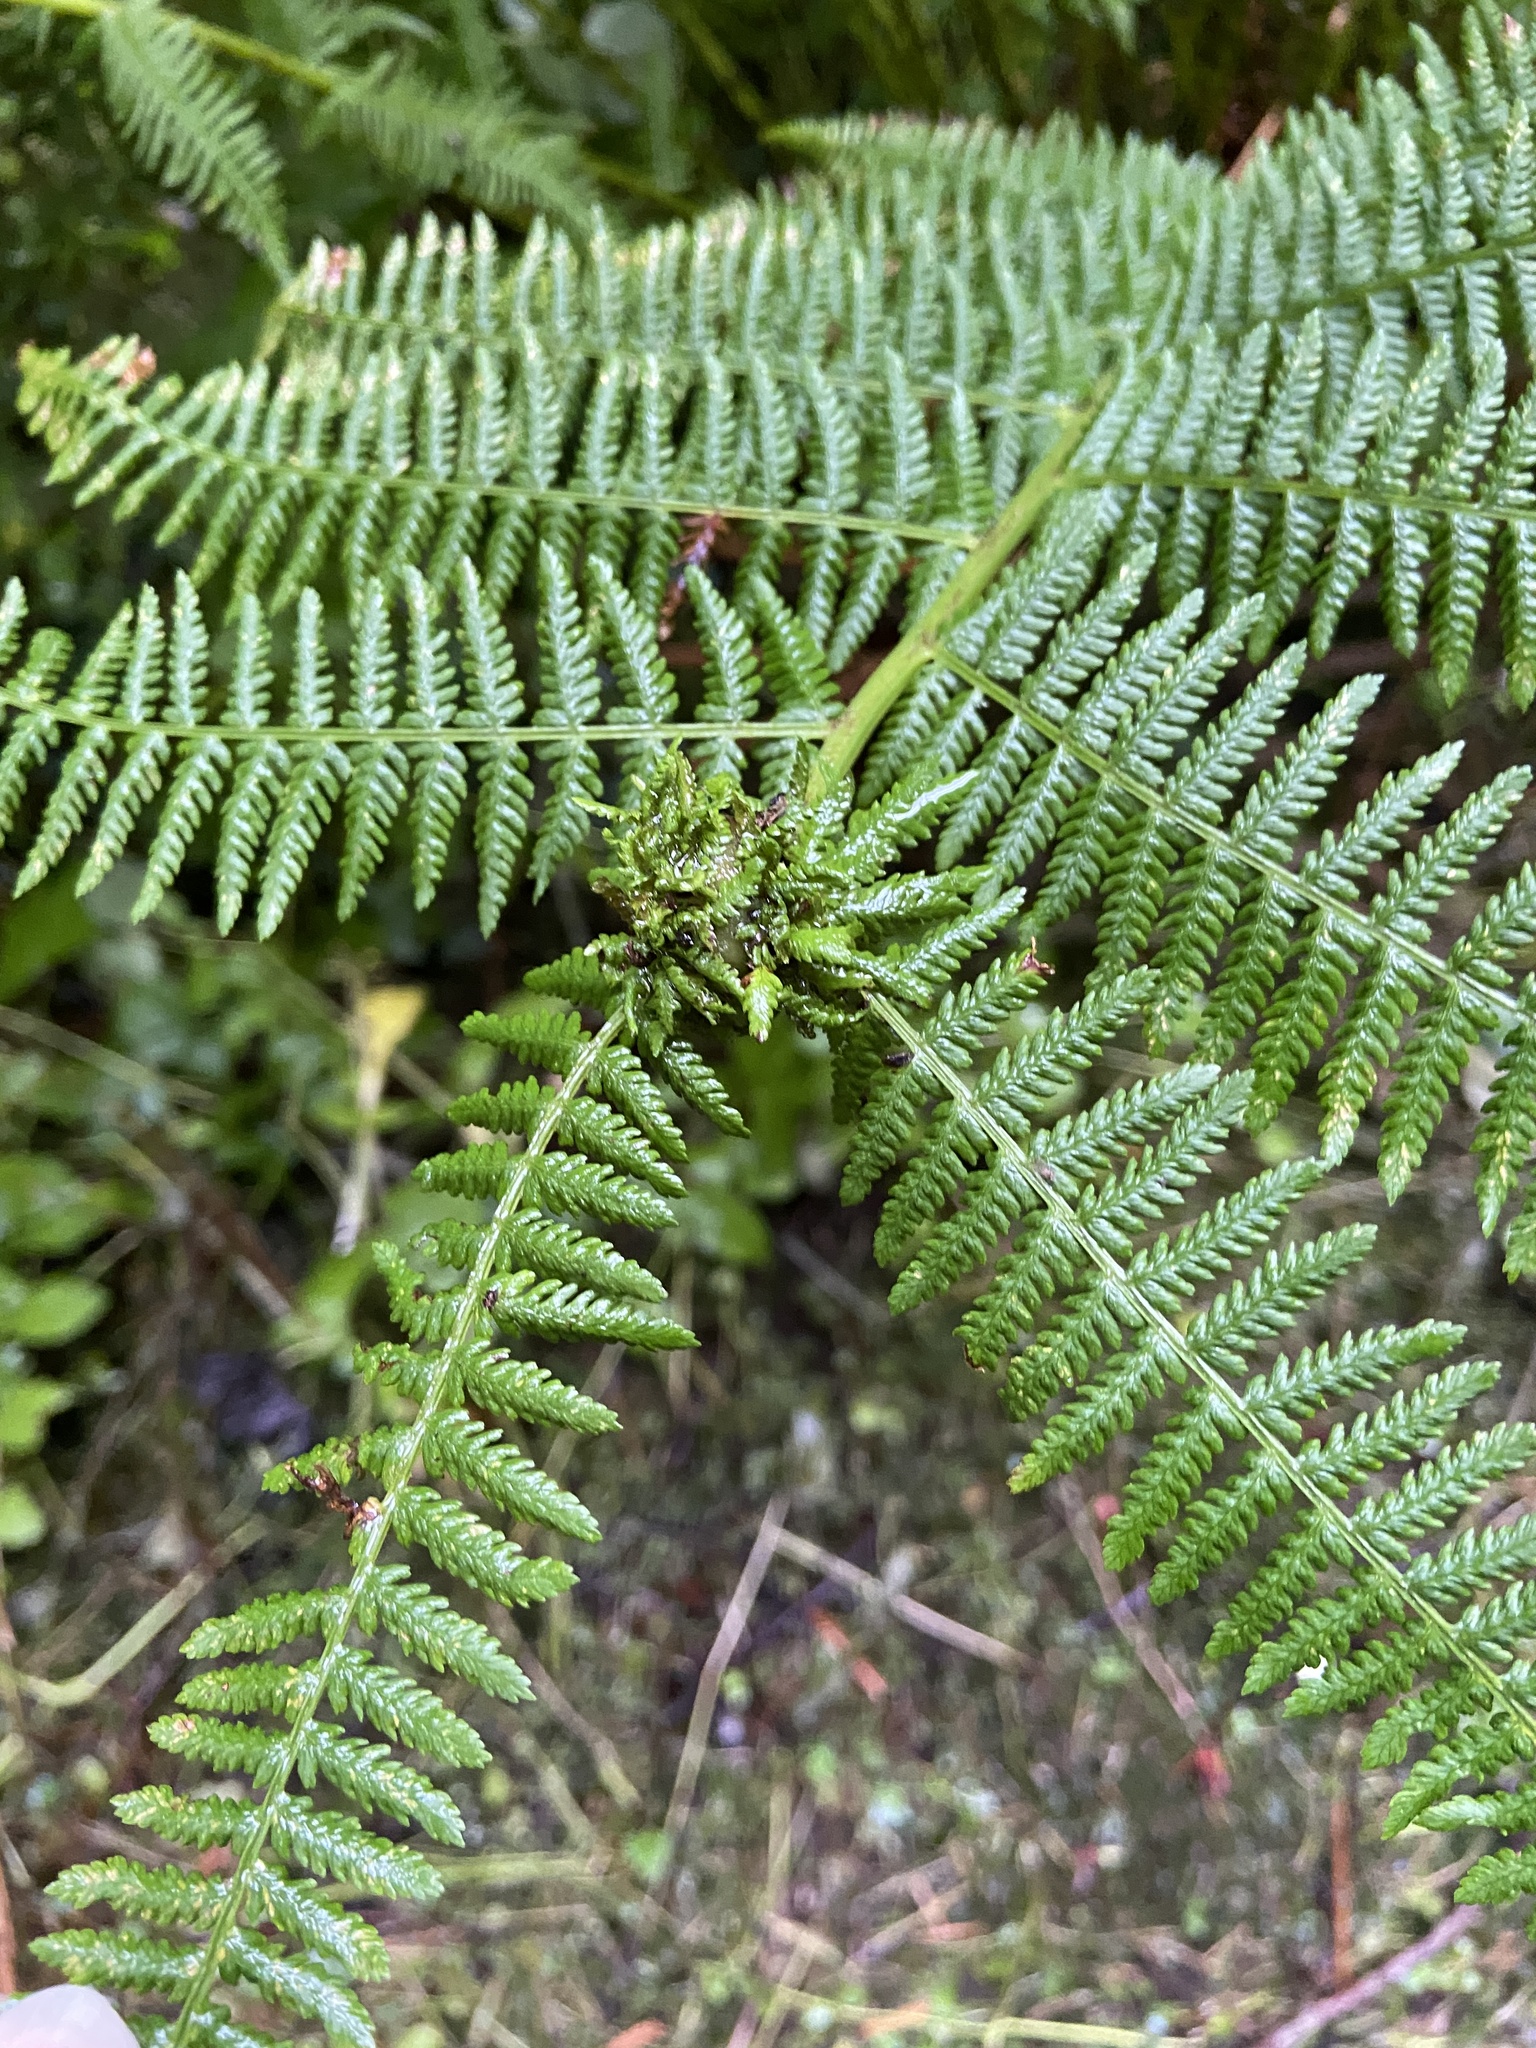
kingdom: Animalia
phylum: Arthropoda
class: Insecta
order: Diptera
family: Anthomyiidae
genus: Chirosia
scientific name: Chirosia betuleti
